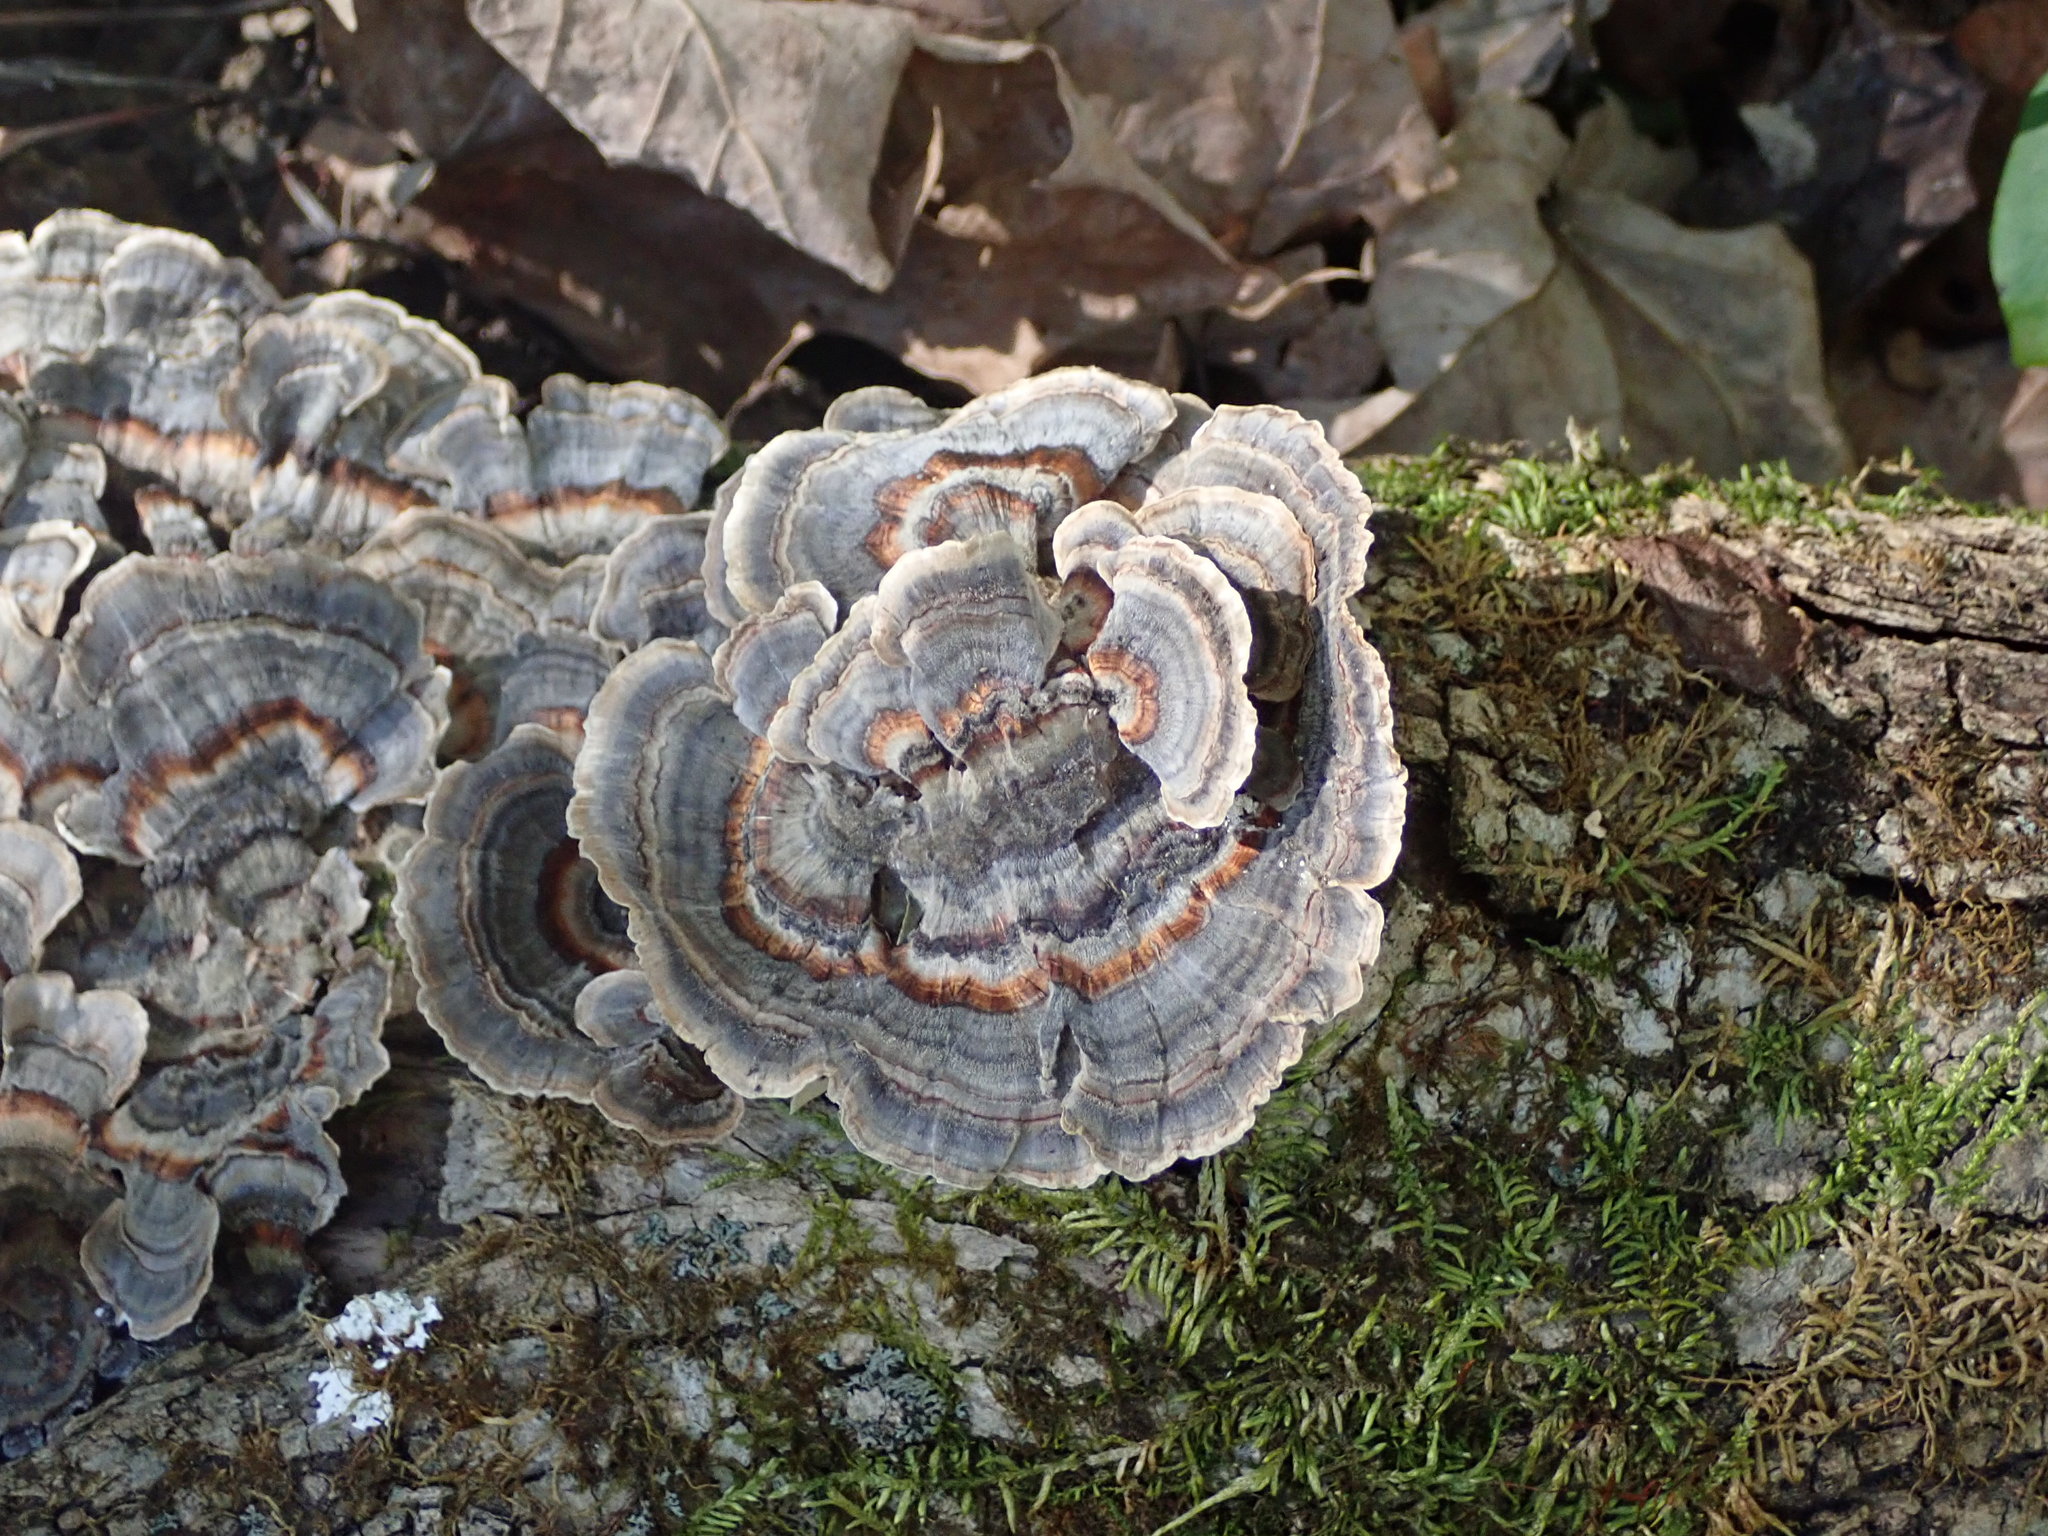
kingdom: Fungi
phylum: Basidiomycota
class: Agaricomycetes
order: Polyporales
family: Polyporaceae
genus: Trametes
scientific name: Trametes versicolor
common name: Turkeytail
